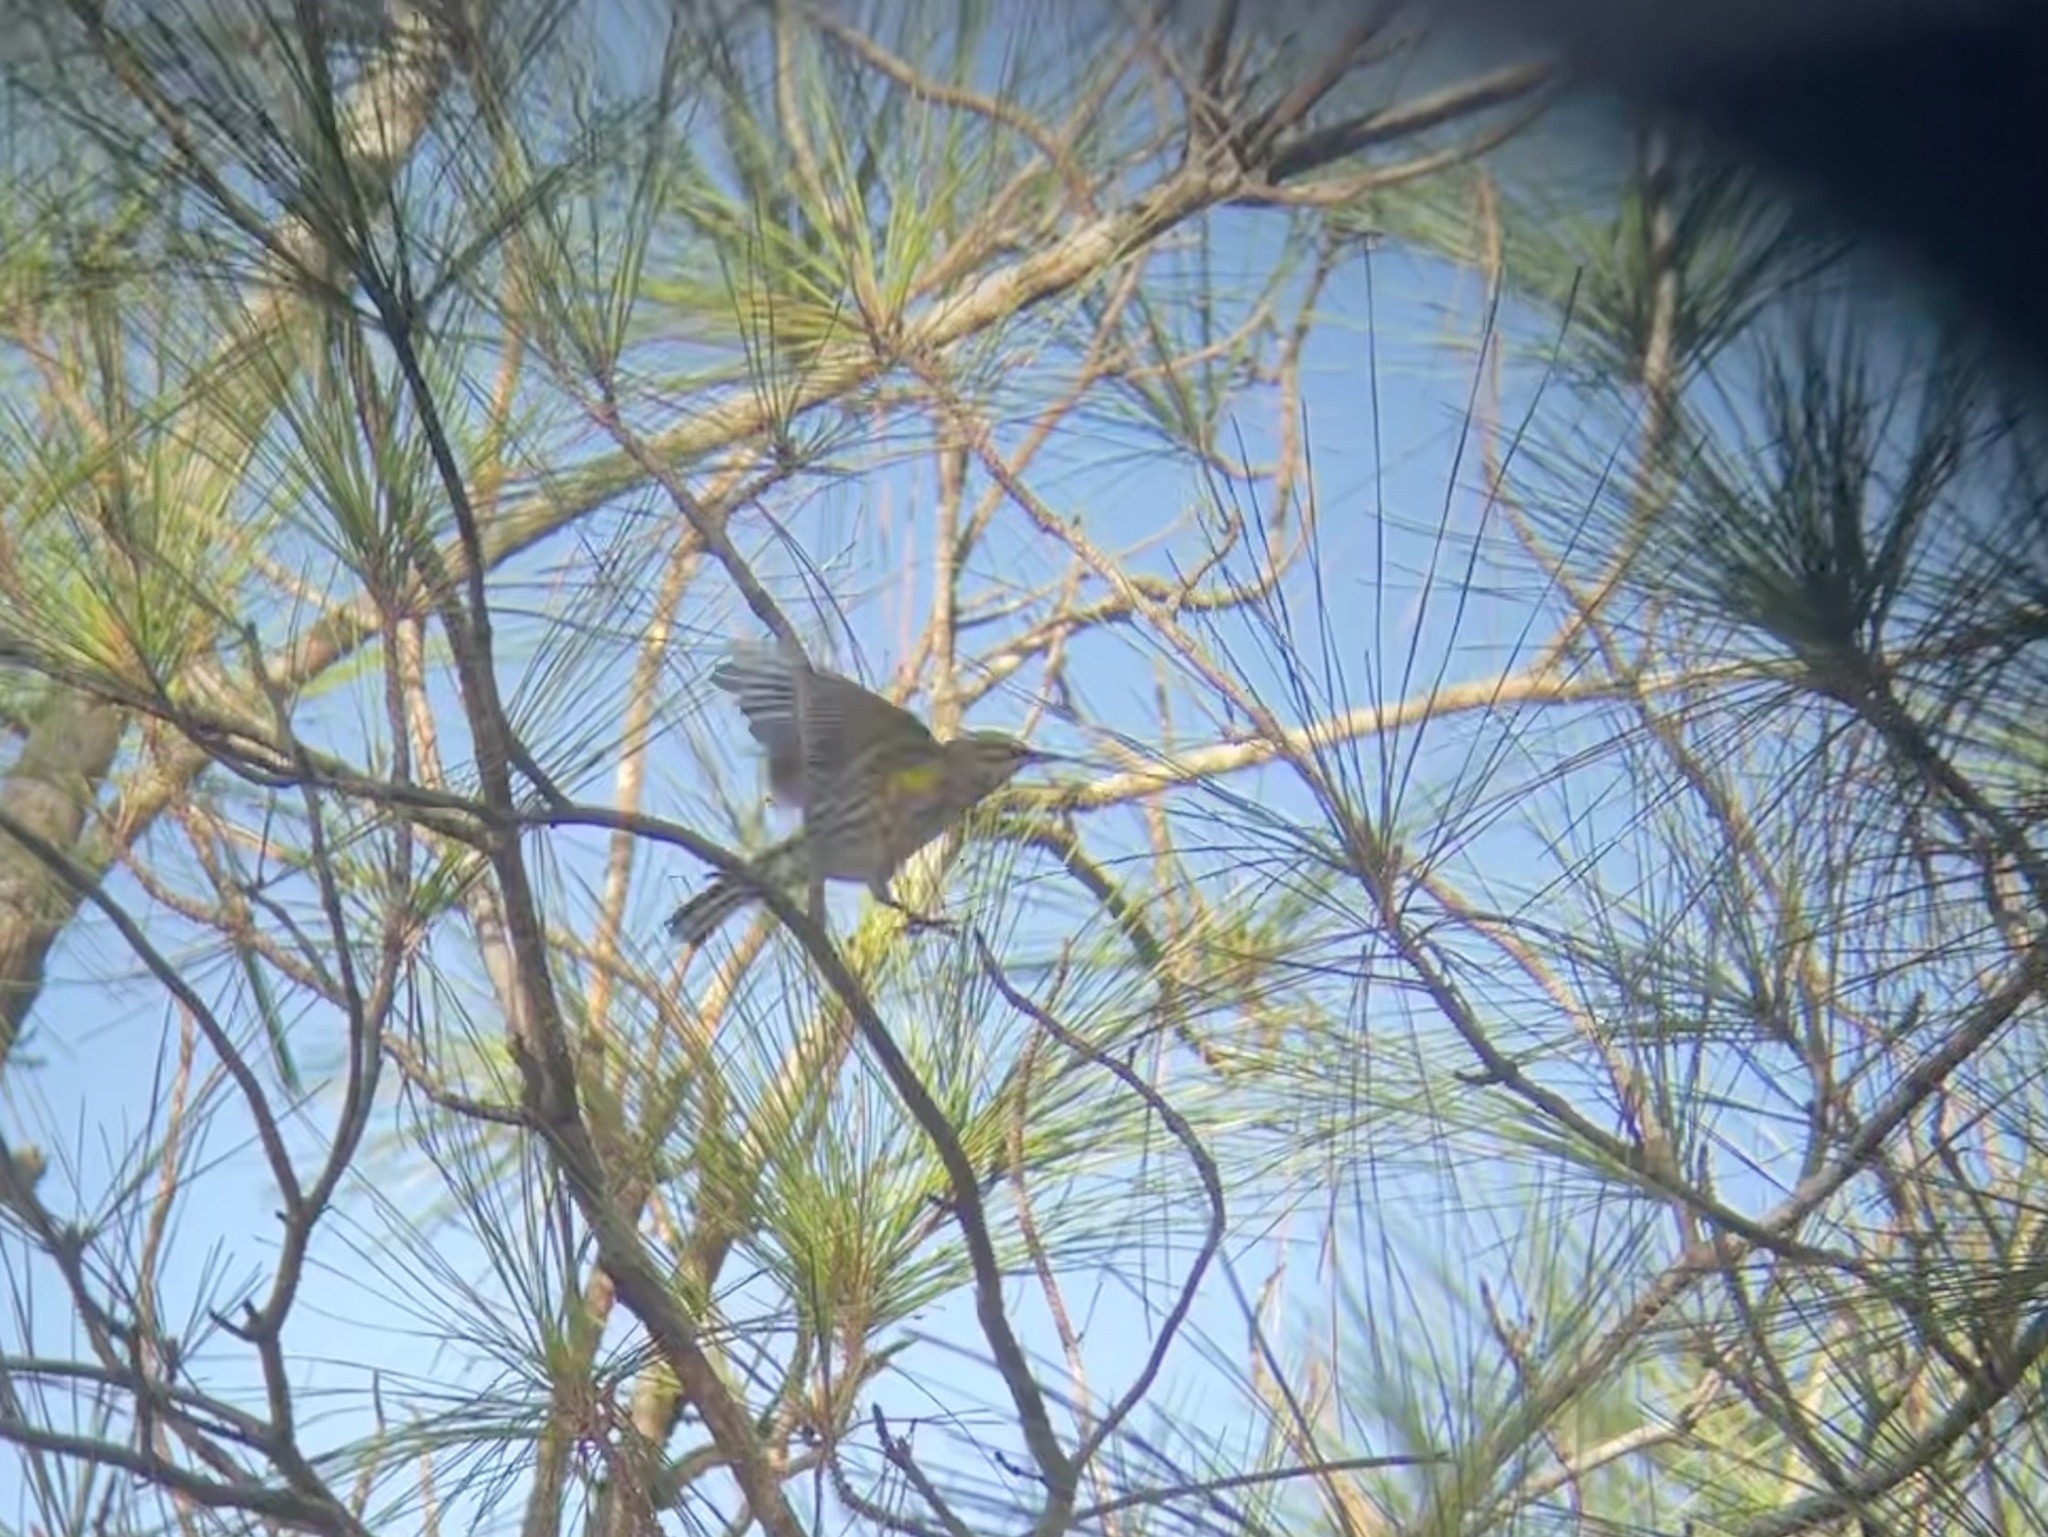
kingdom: Animalia
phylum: Chordata
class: Aves
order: Passeriformes
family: Parulidae
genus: Setophaga
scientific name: Setophaga coronata
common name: Myrtle warbler
